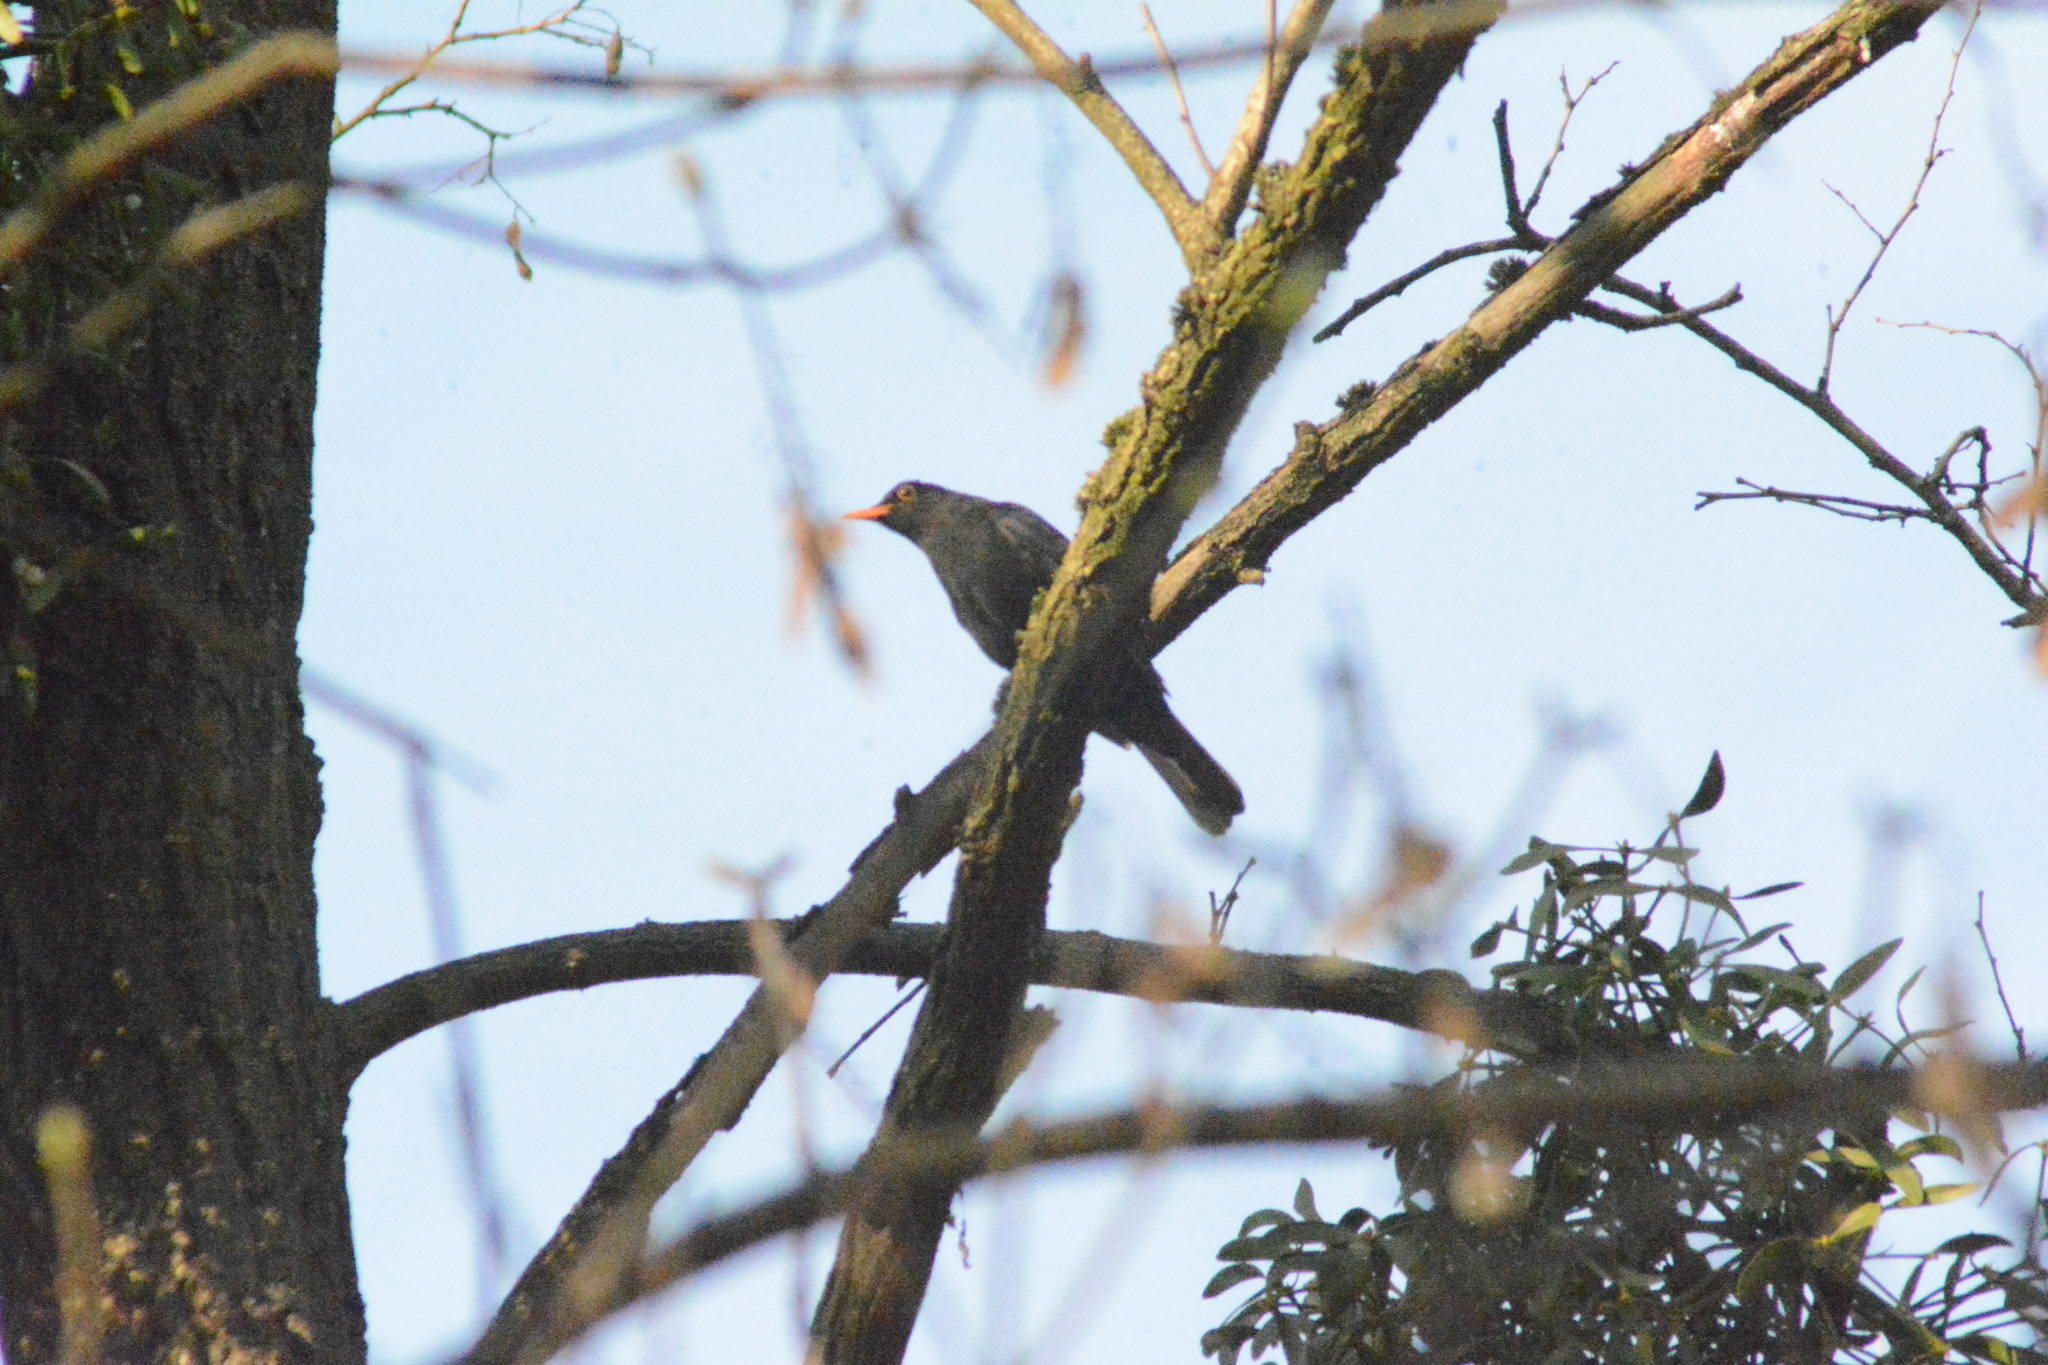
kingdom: Animalia
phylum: Chordata
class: Aves
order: Passeriformes
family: Turdidae
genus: Turdus
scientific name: Turdus merula
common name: Common blackbird
